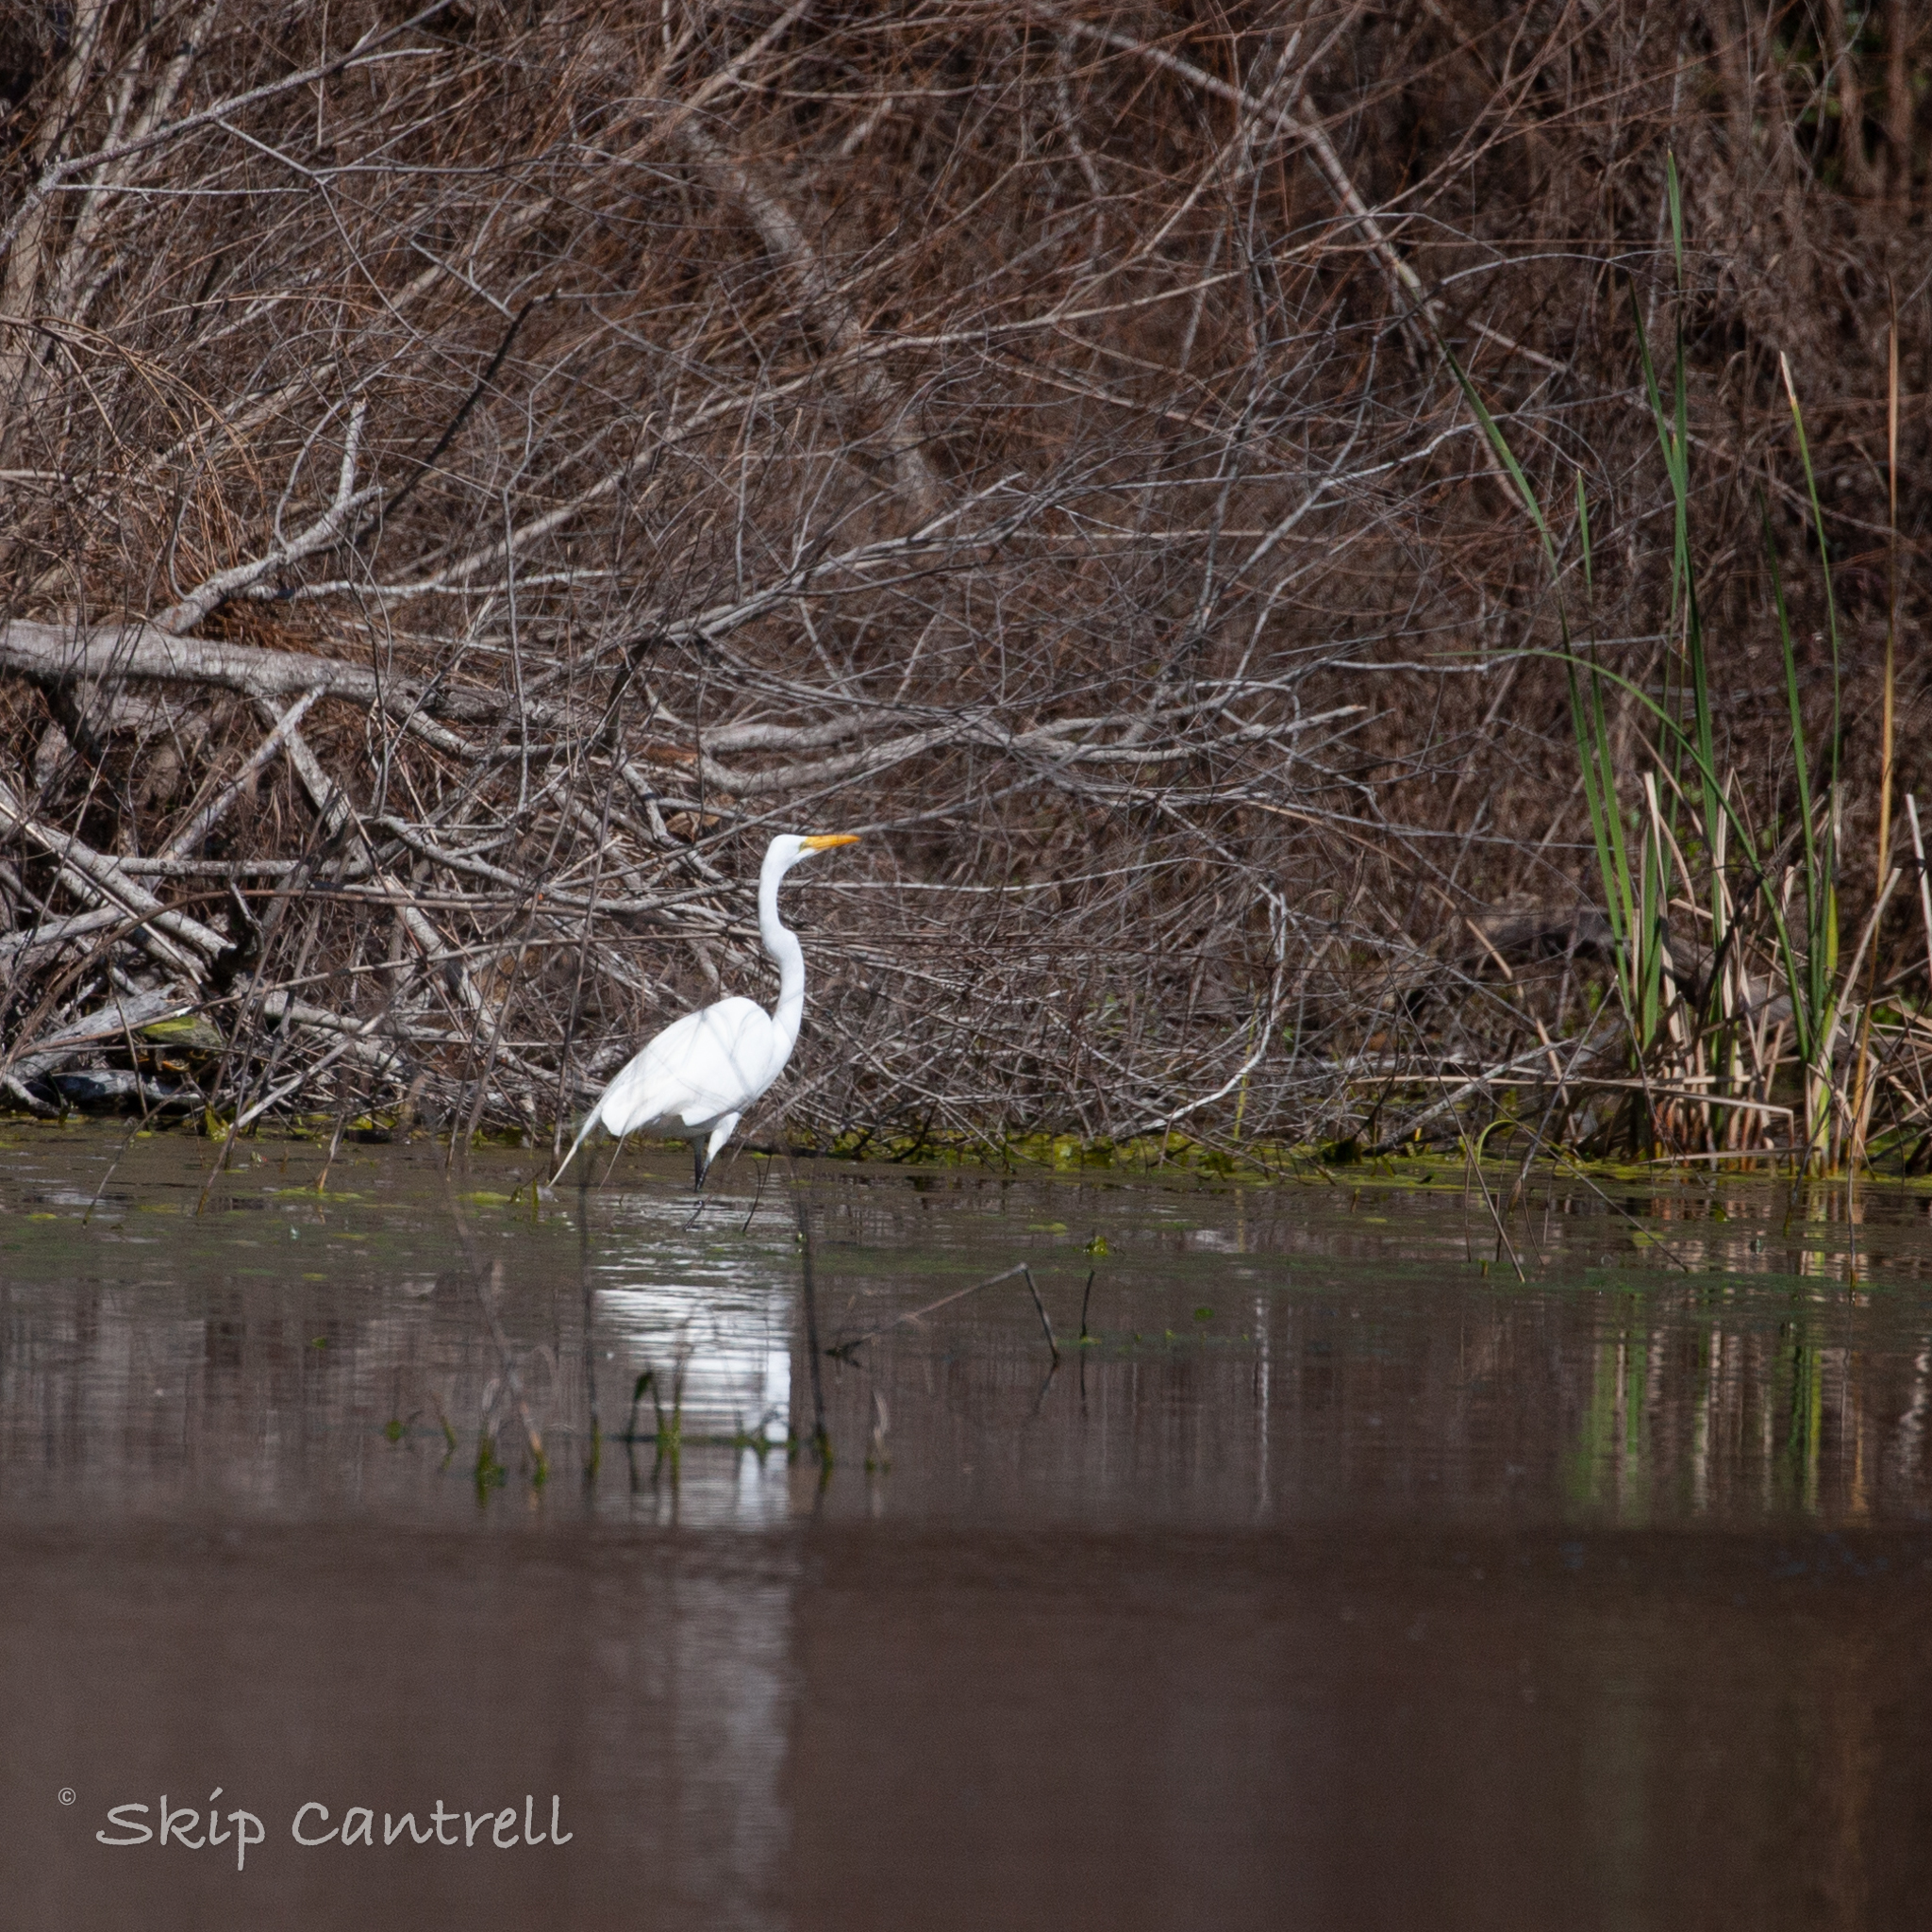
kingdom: Animalia
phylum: Chordata
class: Aves
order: Pelecaniformes
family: Ardeidae
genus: Ardea
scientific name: Ardea alba
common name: Great egret
